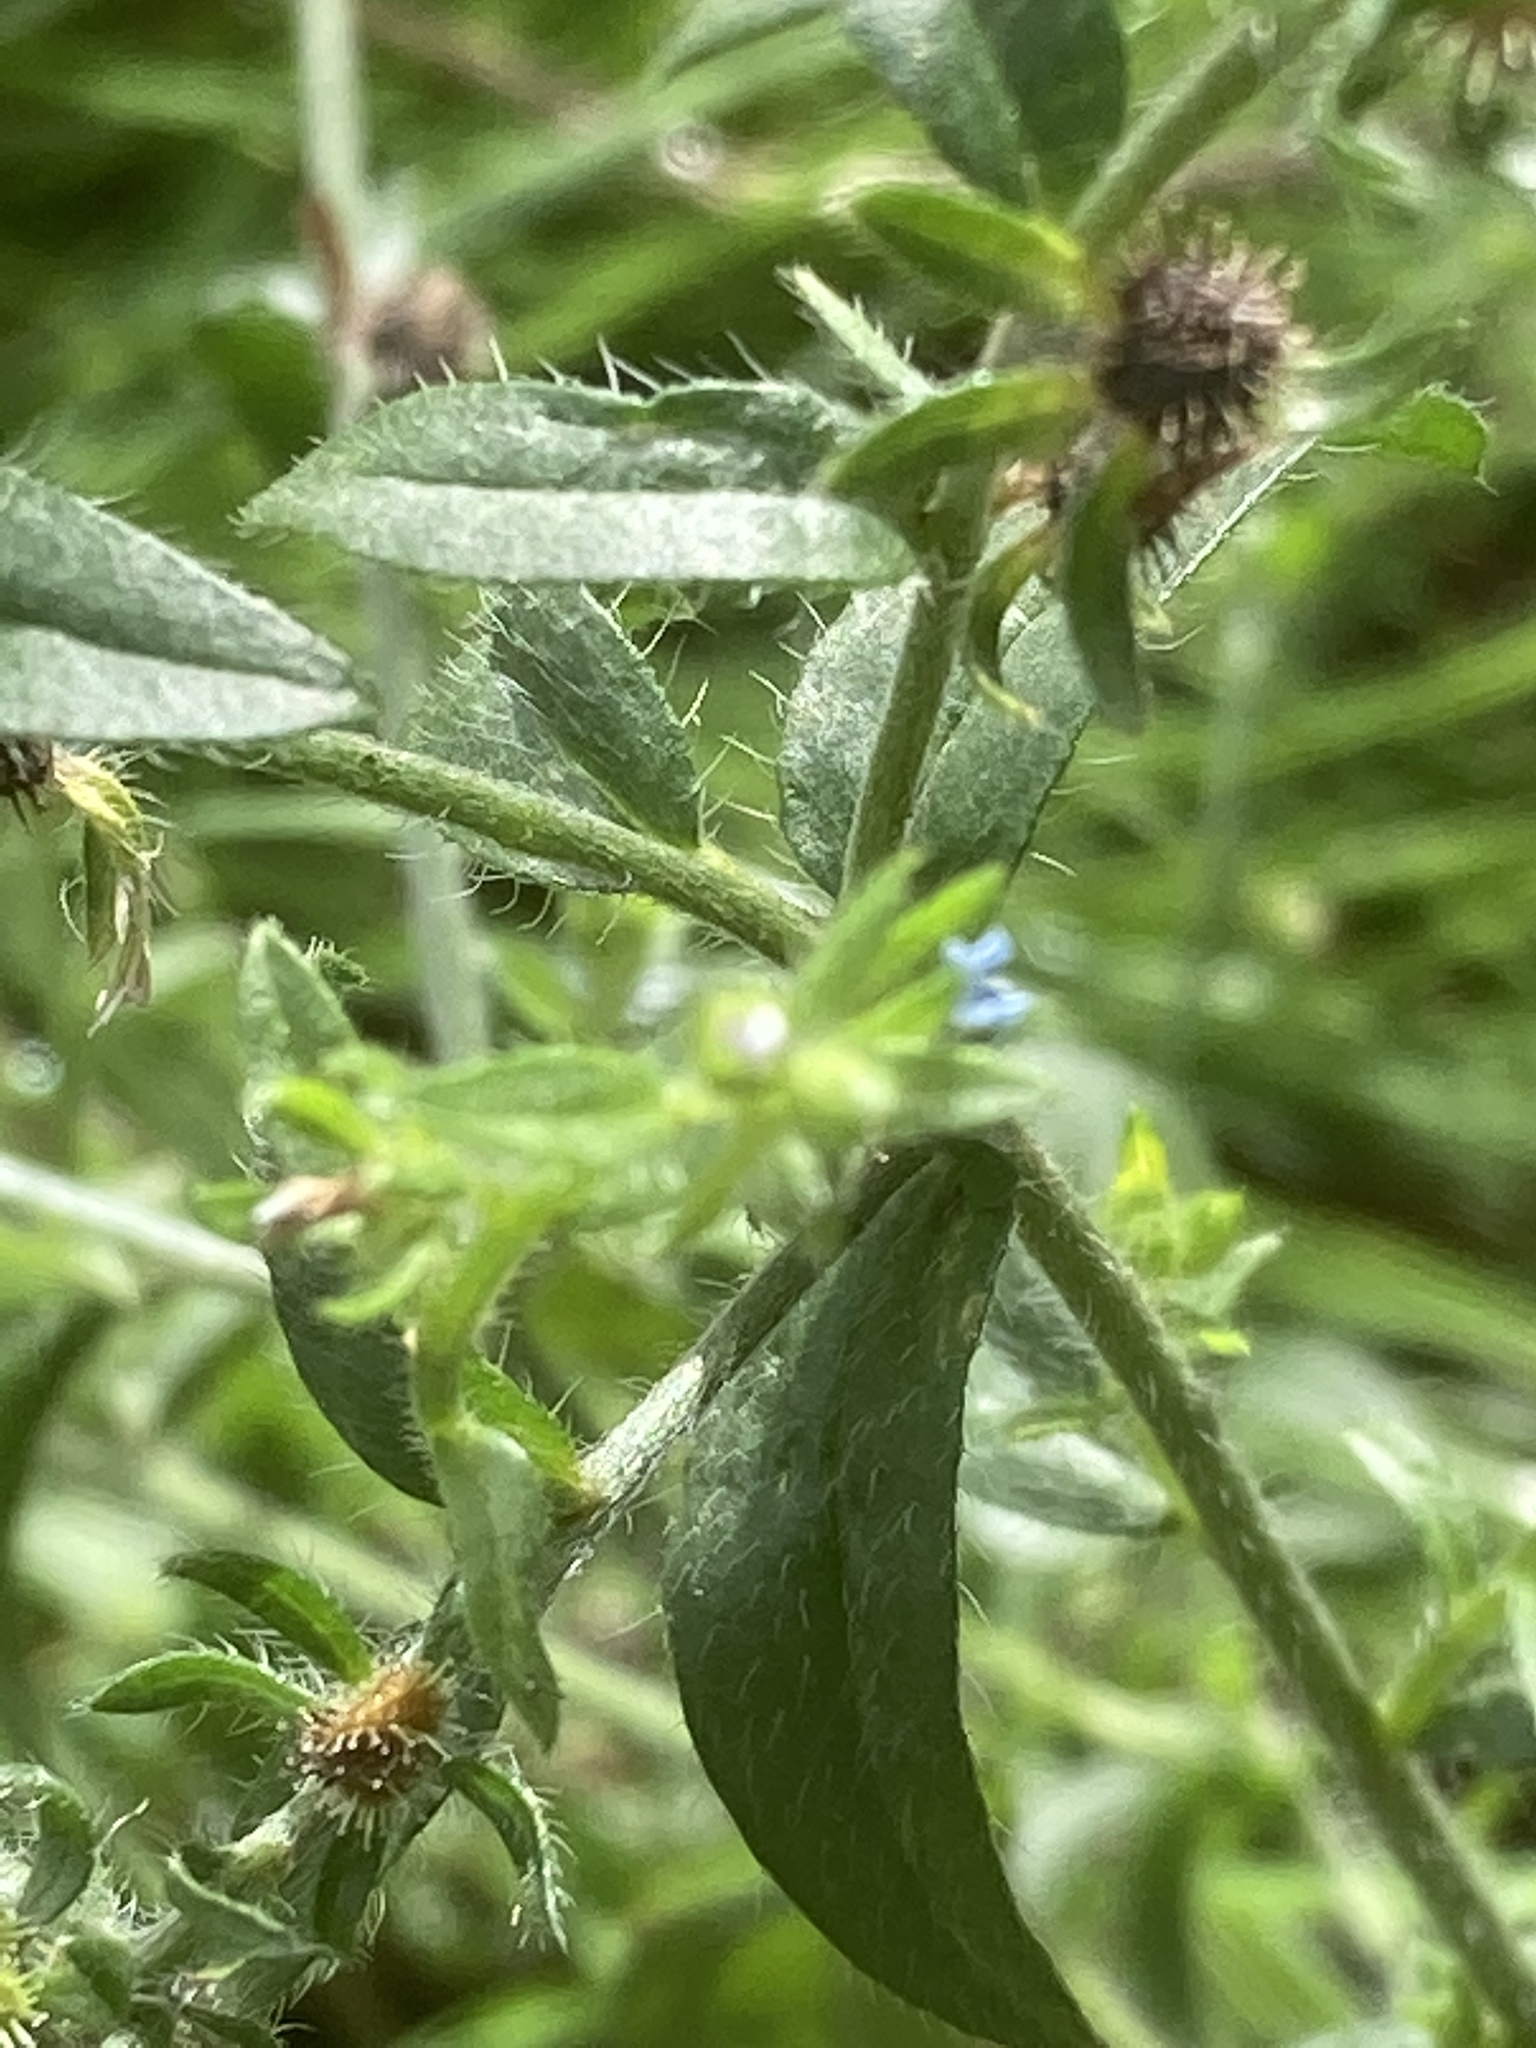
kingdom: Plantae
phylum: Tracheophyta
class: Magnoliopsida
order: Boraginales
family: Boraginaceae
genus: Lappula
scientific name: Lappula squarrosa
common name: European stickseed
